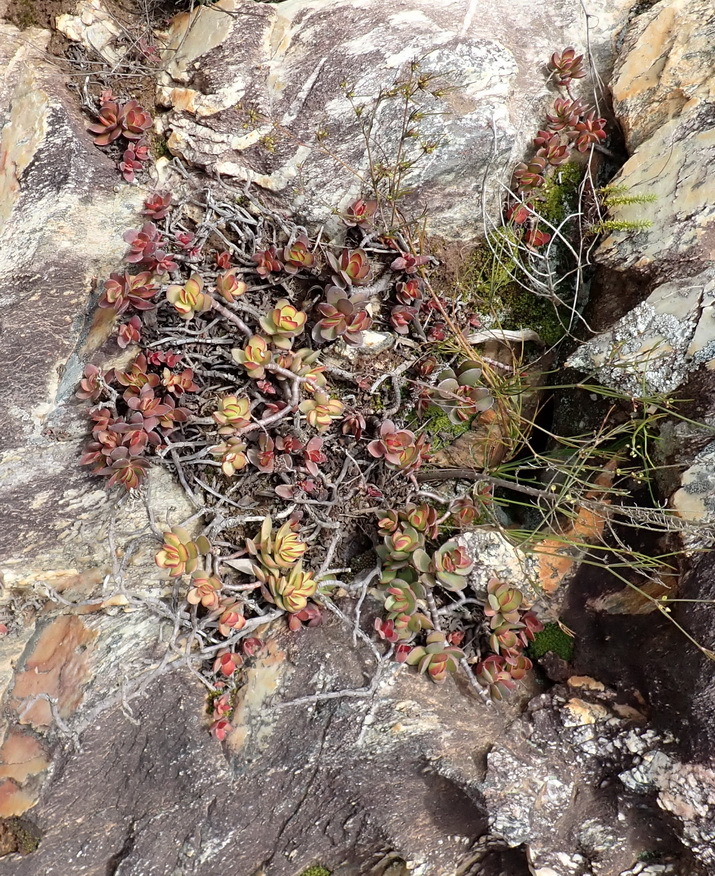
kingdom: Plantae
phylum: Tracheophyta
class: Magnoliopsida
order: Saxifragales
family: Crassulaceae
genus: Crassula
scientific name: Crassula rubricaulis
